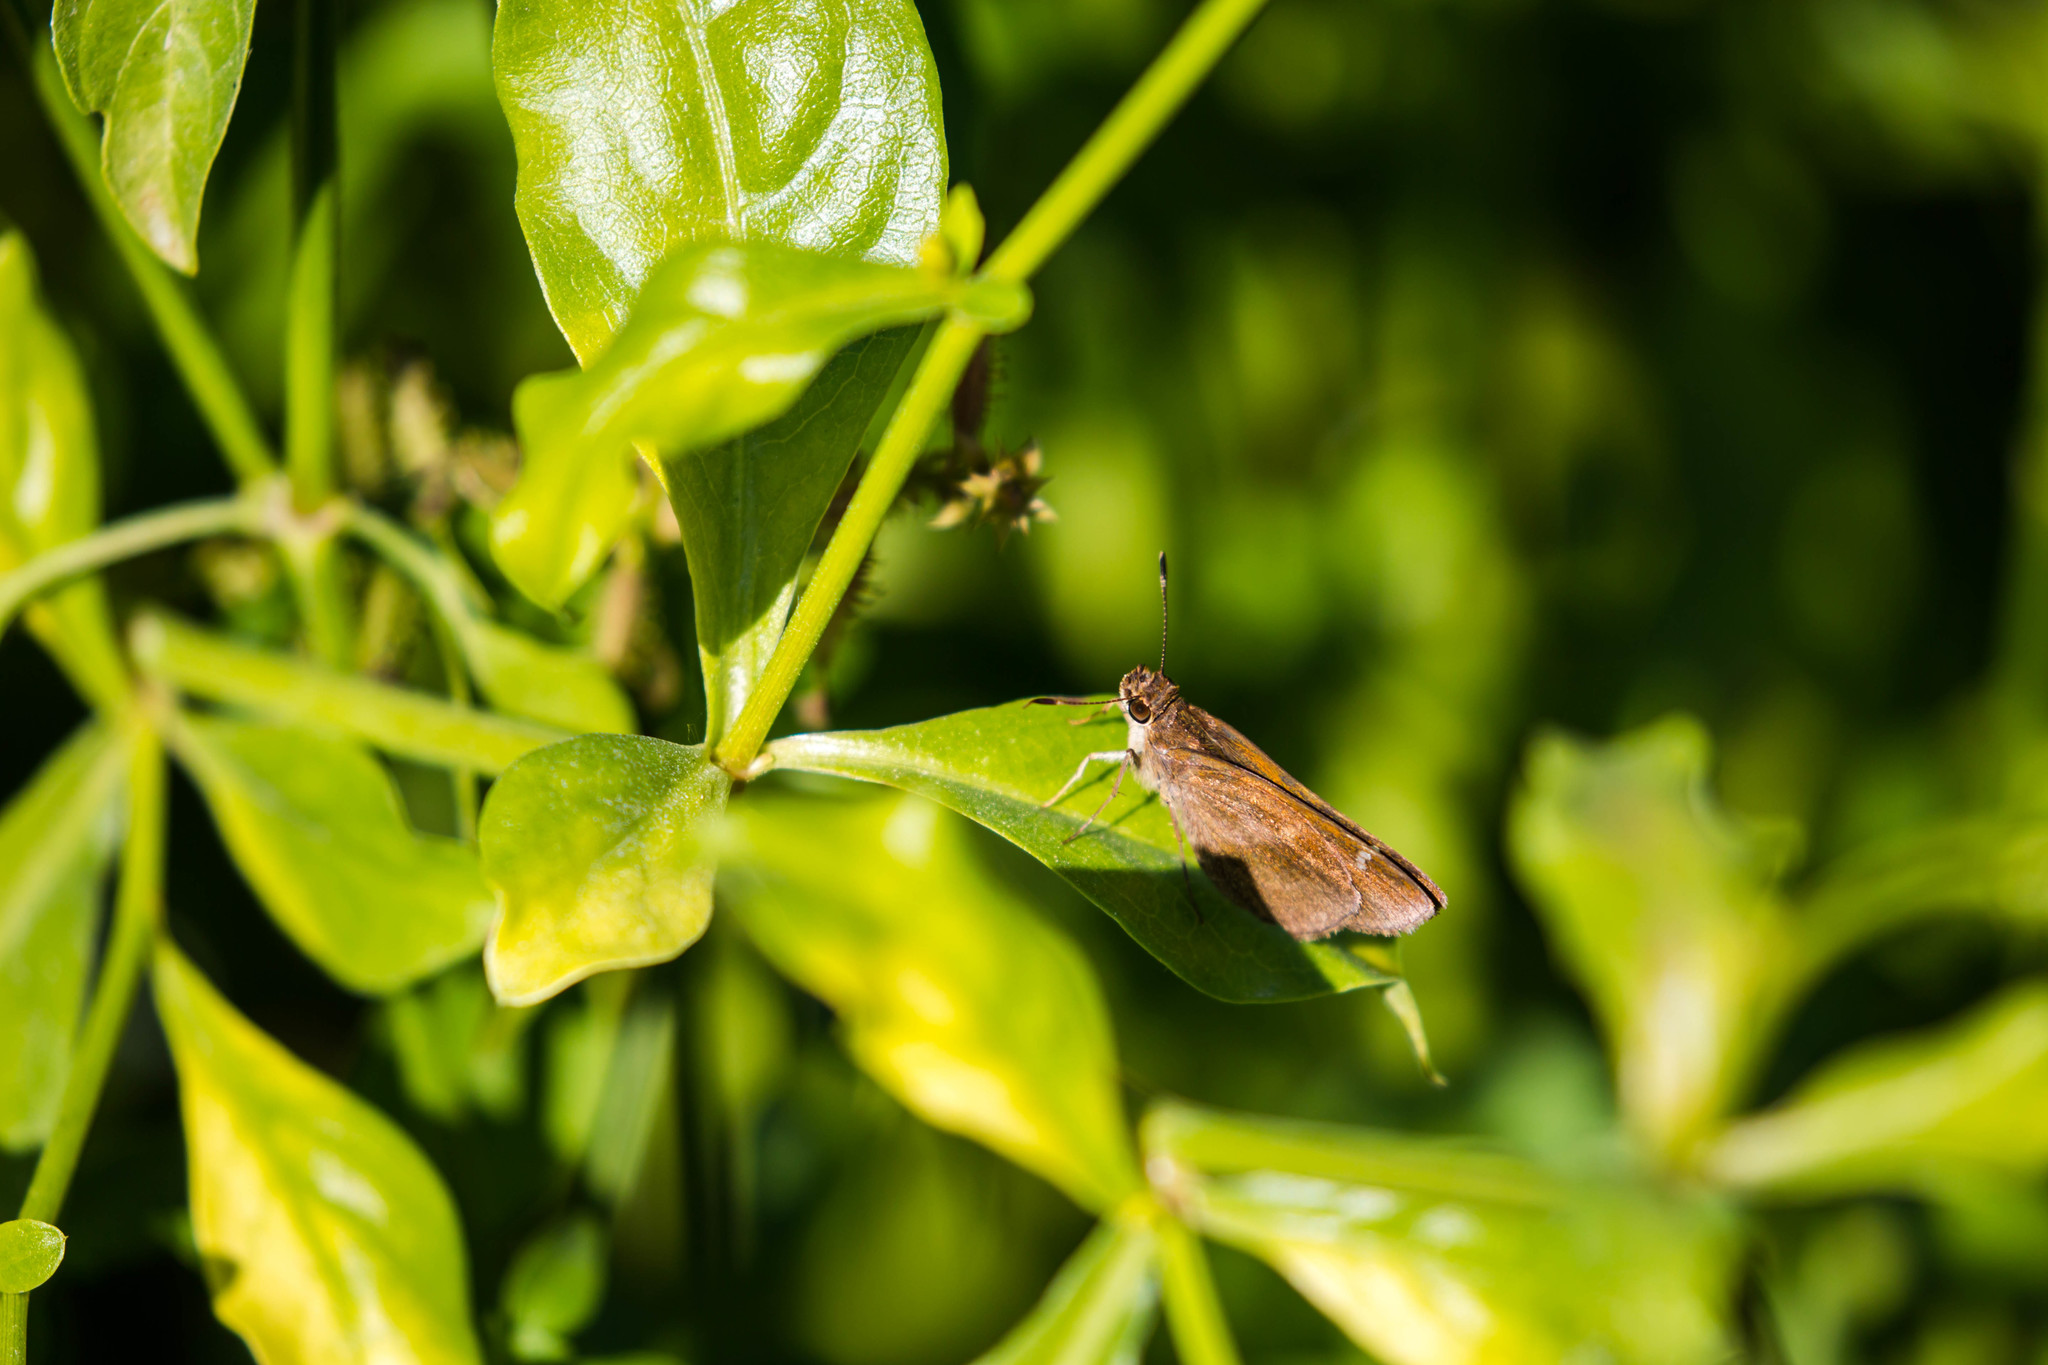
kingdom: Animalia
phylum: Arthropoda
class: Insecta
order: Lepidoptera
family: Hesperiidae
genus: Lerema
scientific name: Lerema accius
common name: Clouded skipper
